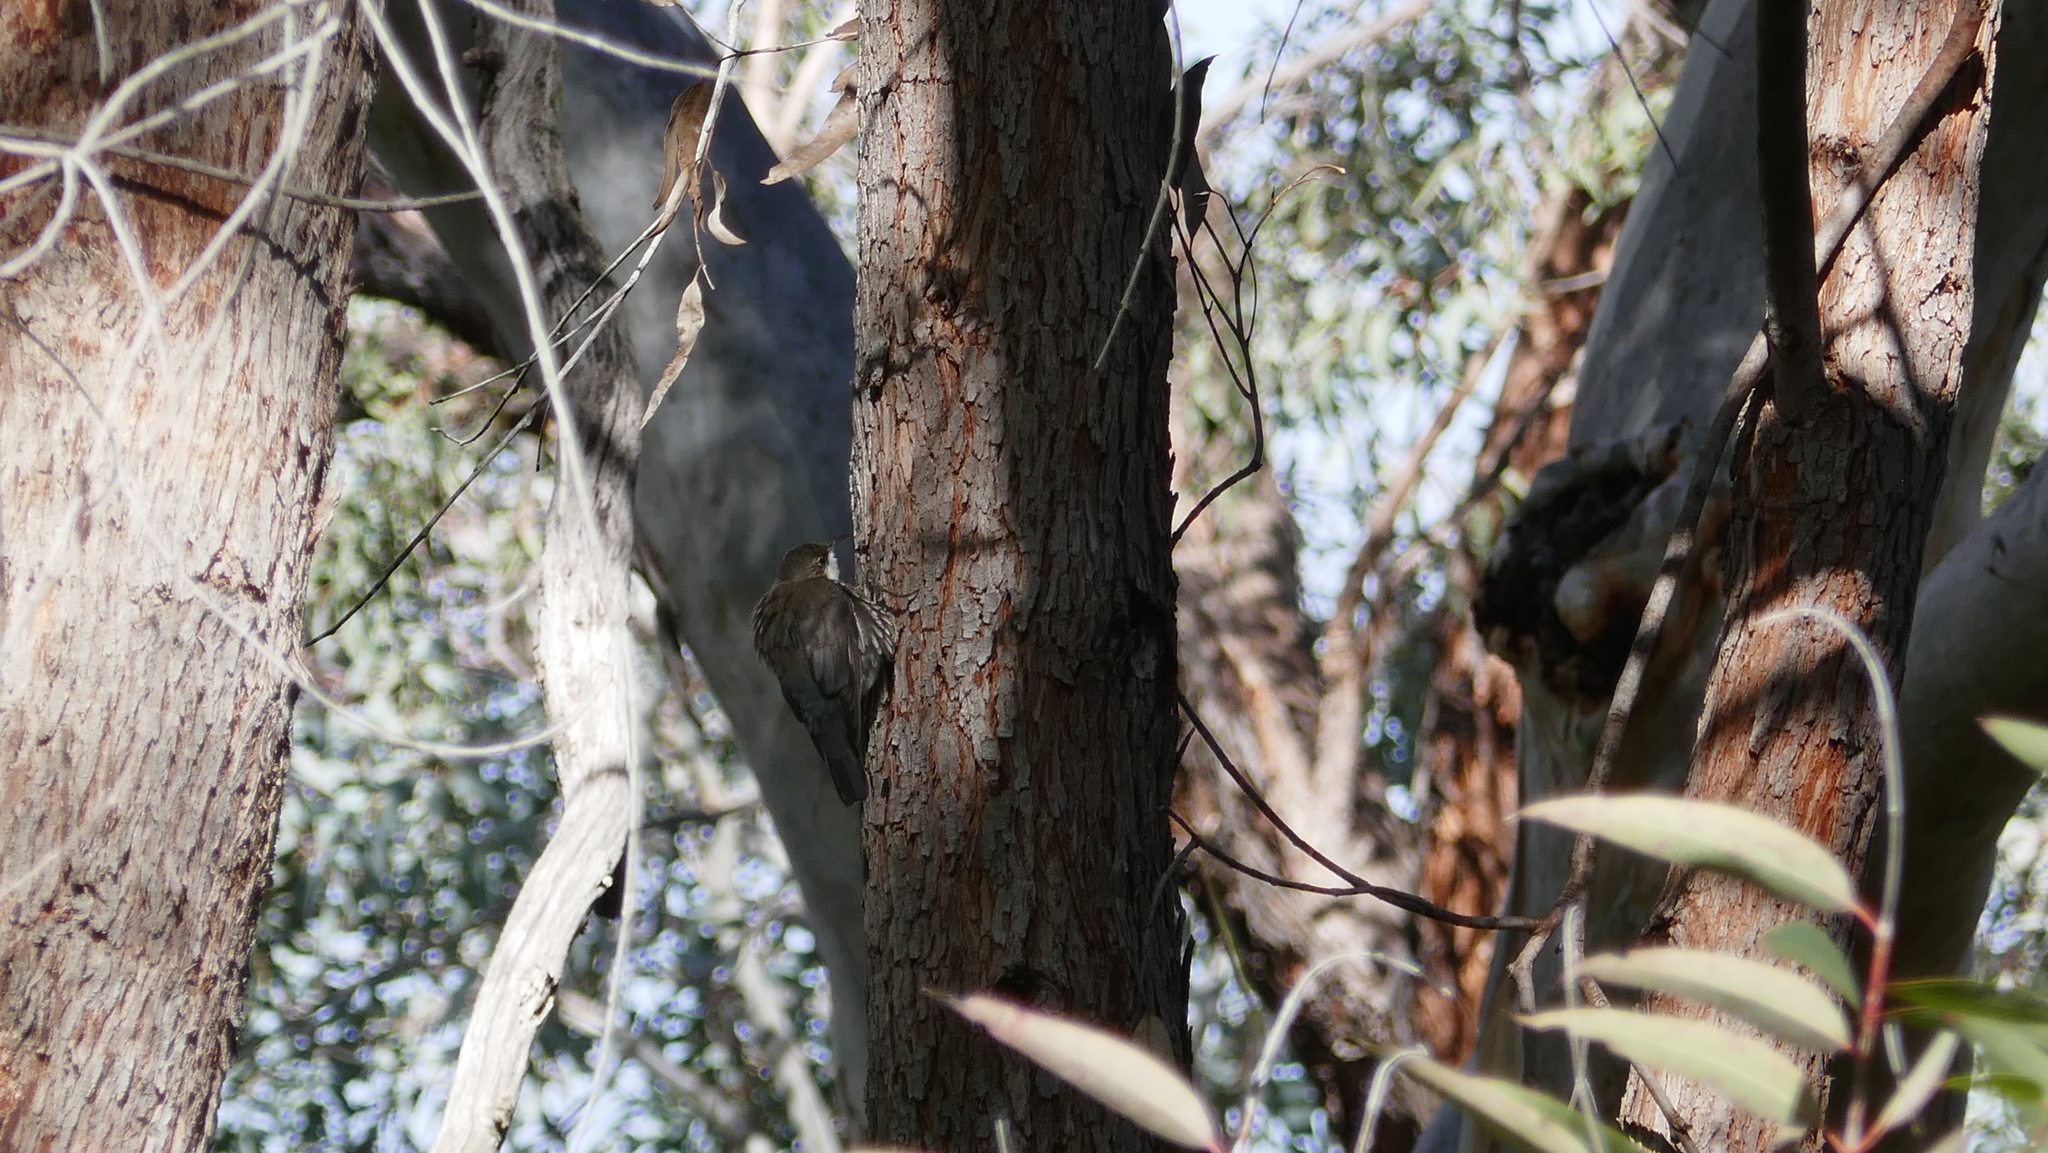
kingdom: Animalia
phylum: Chordata
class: Aves
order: Passeriformes
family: Climacteridae
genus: Cormobates
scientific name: Cormobates leucophaea
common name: White-throated treecreeper
